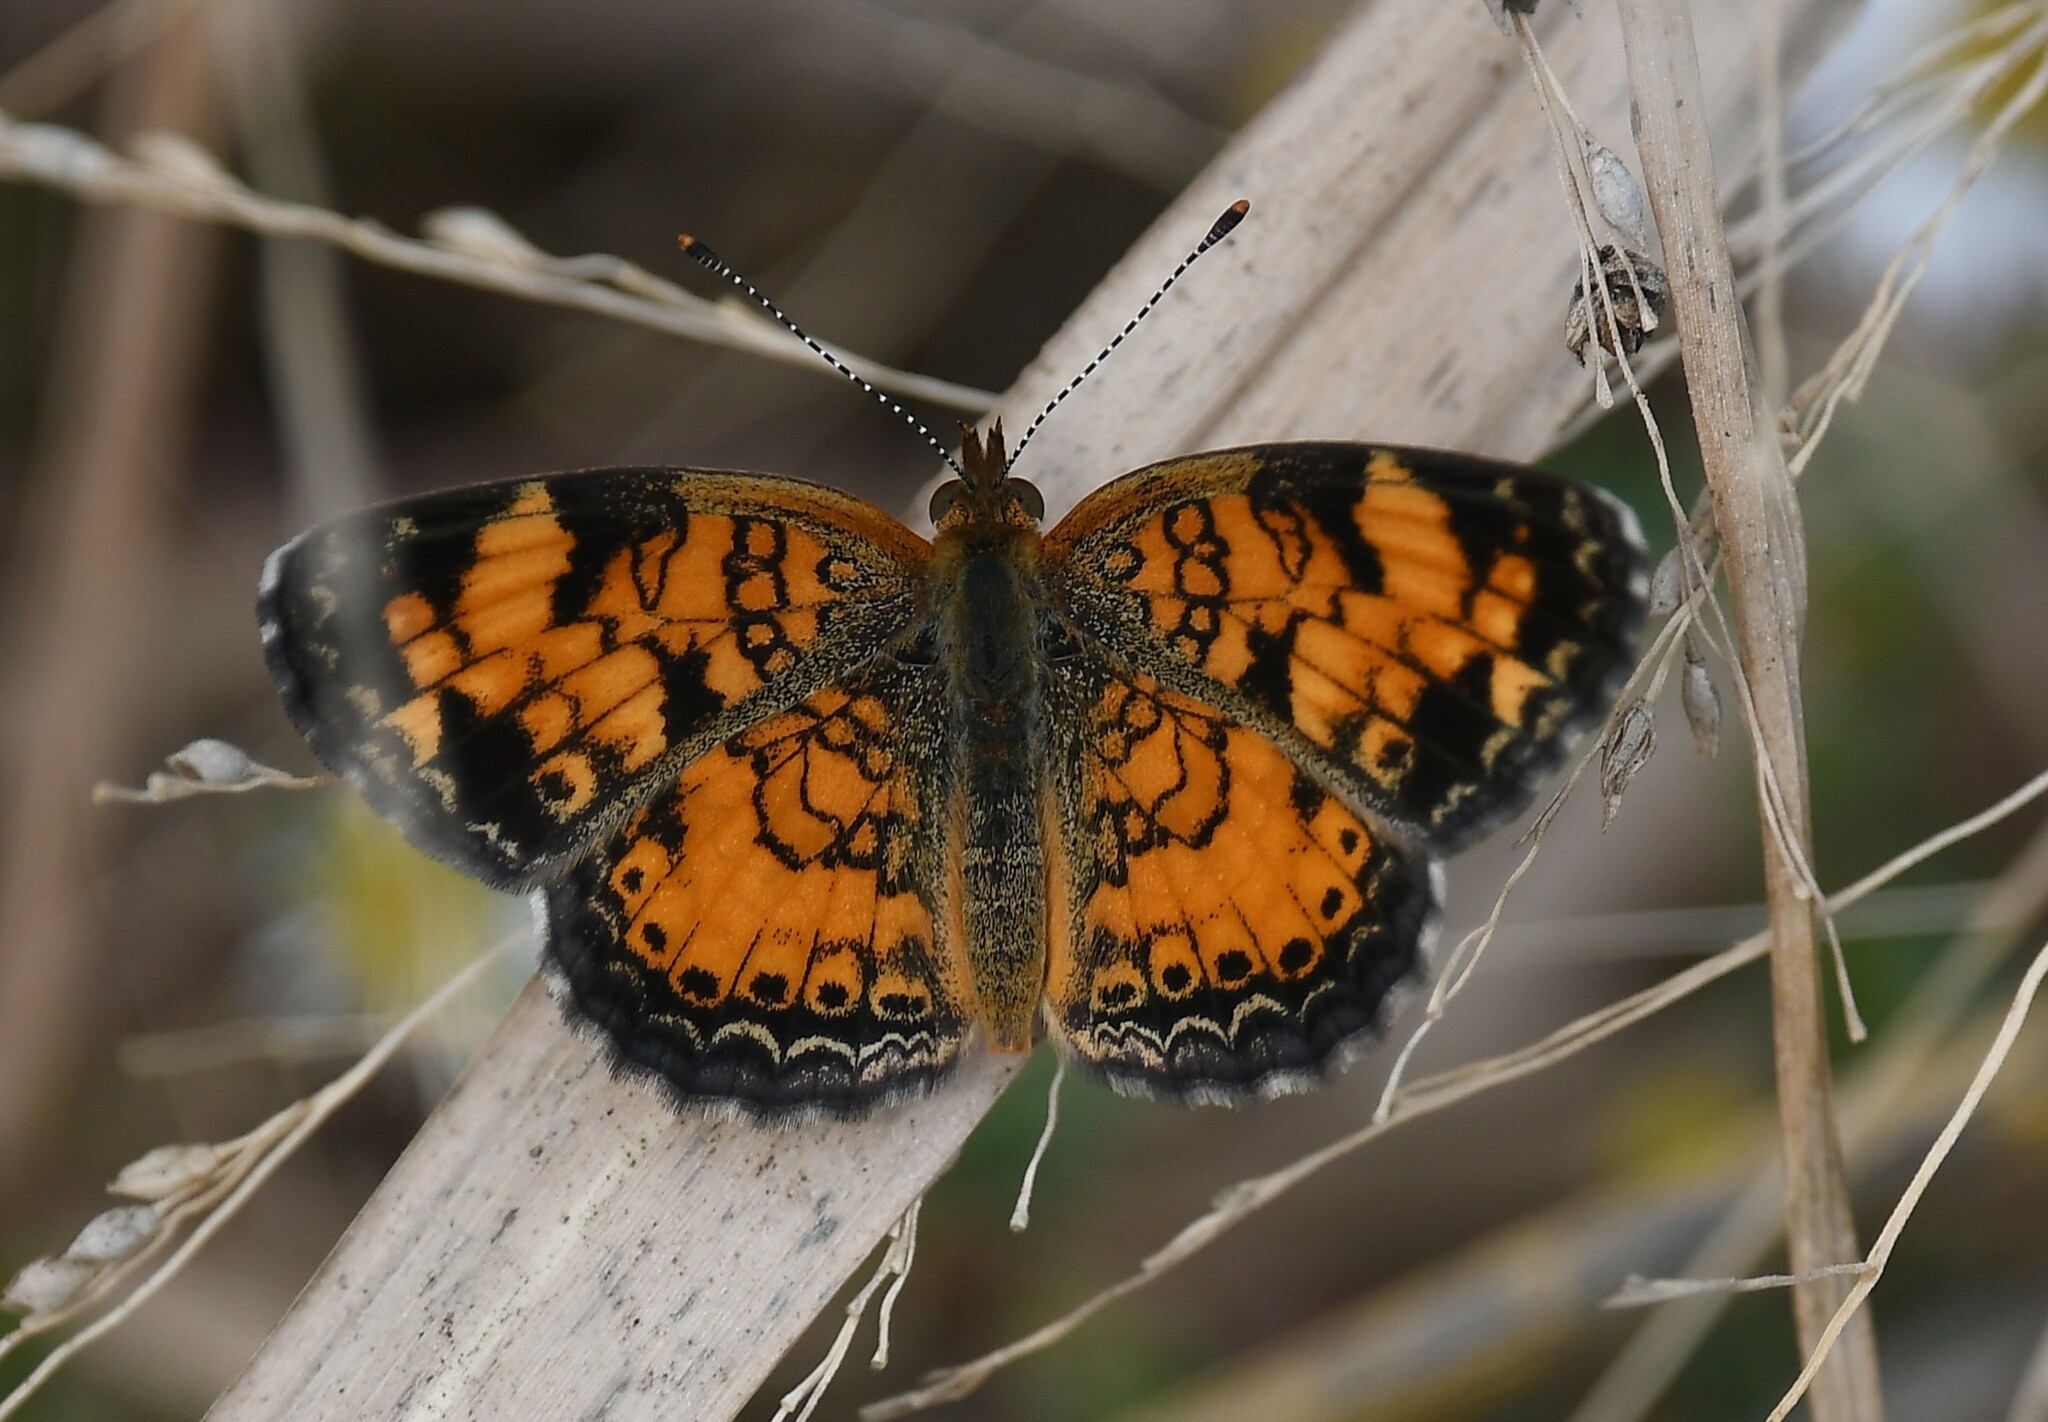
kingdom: Animalia
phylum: Arthropoda
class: Insecta
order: Lepidoptera
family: Nymphalidae
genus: Phyciodes
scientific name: Phyciodes tharos
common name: Pearl crescent
